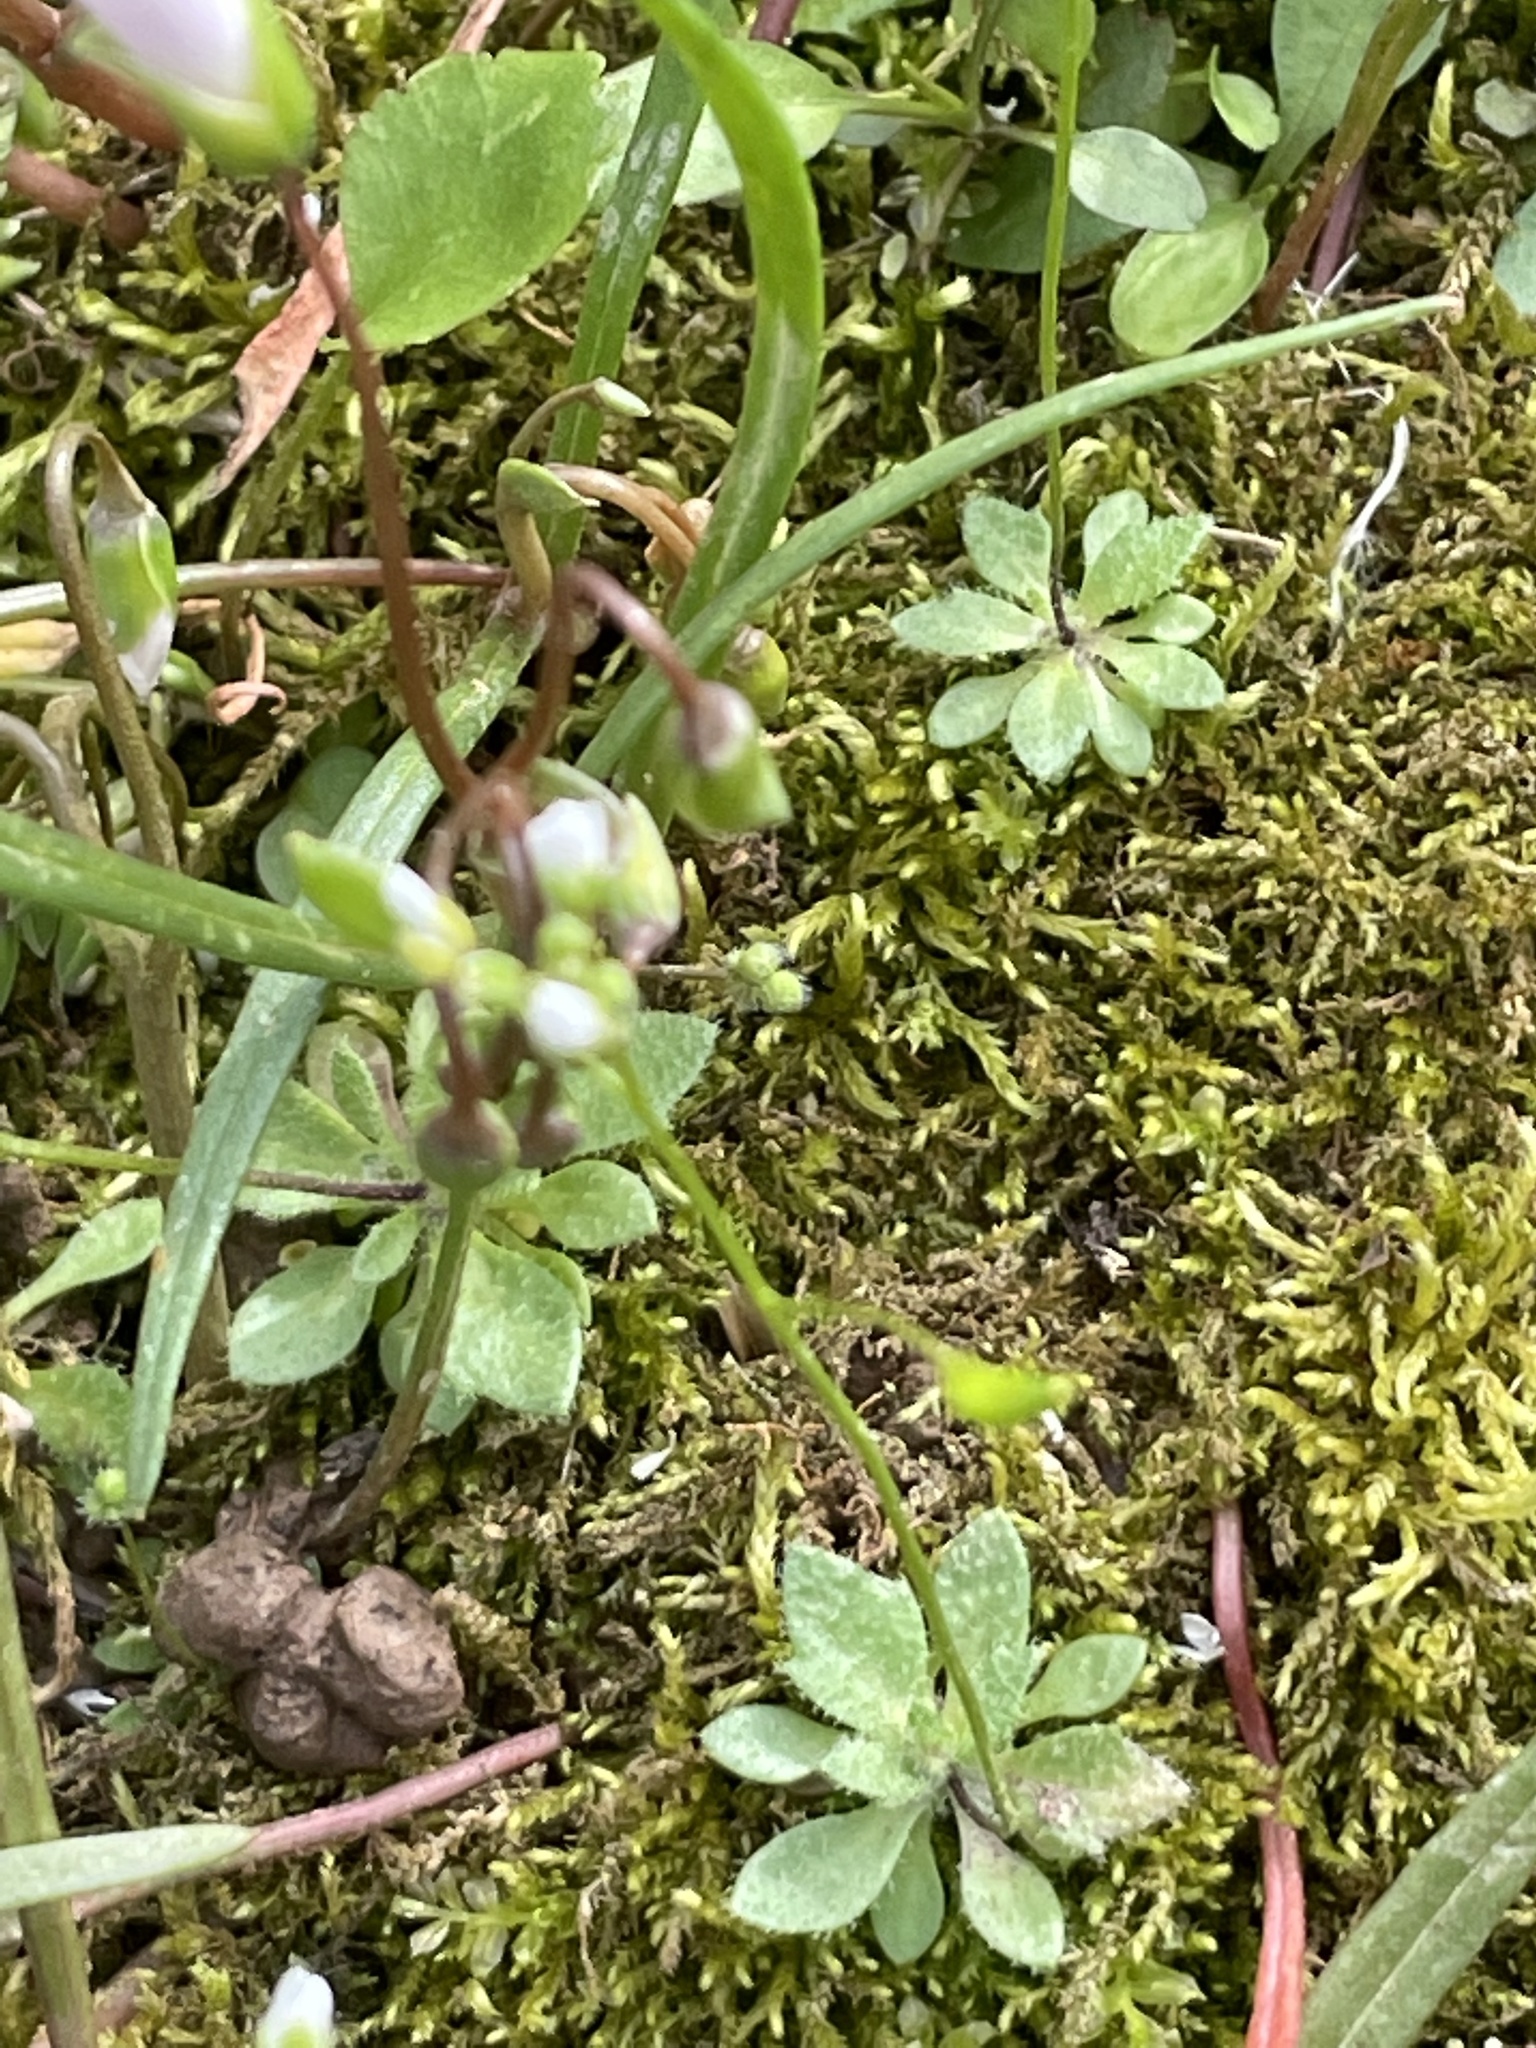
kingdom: Plantae
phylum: Tracheophyta
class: Magnoliopsida
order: Brassicales
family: Brassicaceae
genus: Draba
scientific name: Draba verna
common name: Spring draba
